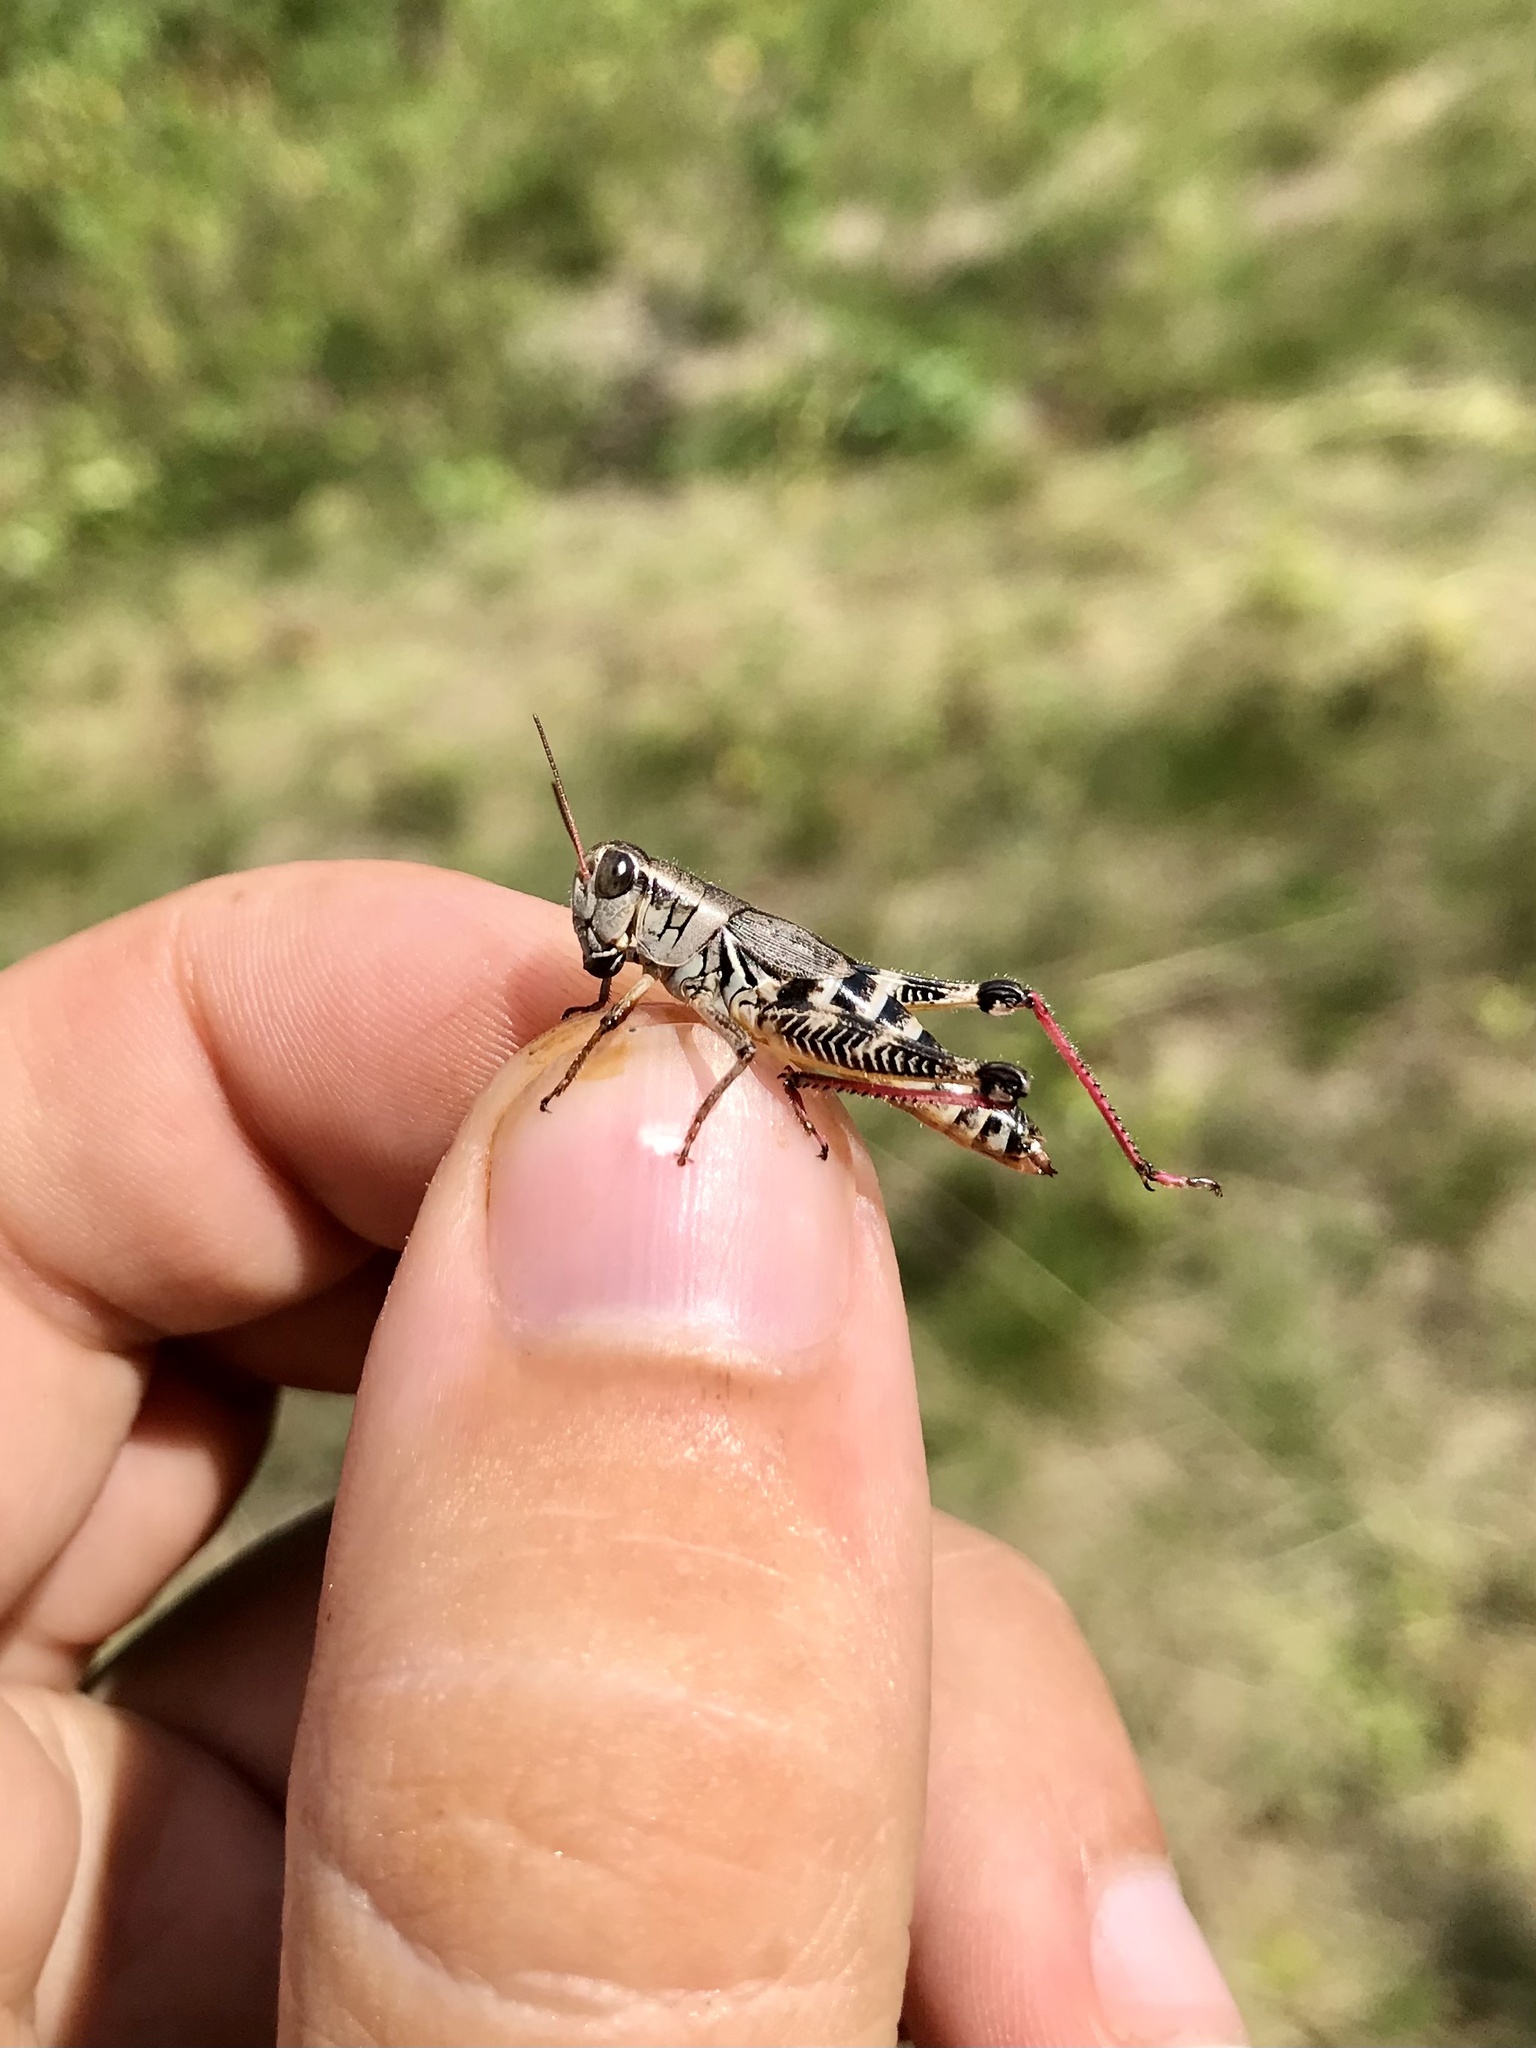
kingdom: Animalia
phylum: Arthropoda
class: Insecta
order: Orthoptera
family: Acrididae
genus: Melanoplus
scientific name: Melanoplus dawsoni
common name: Dawson grasshopper
